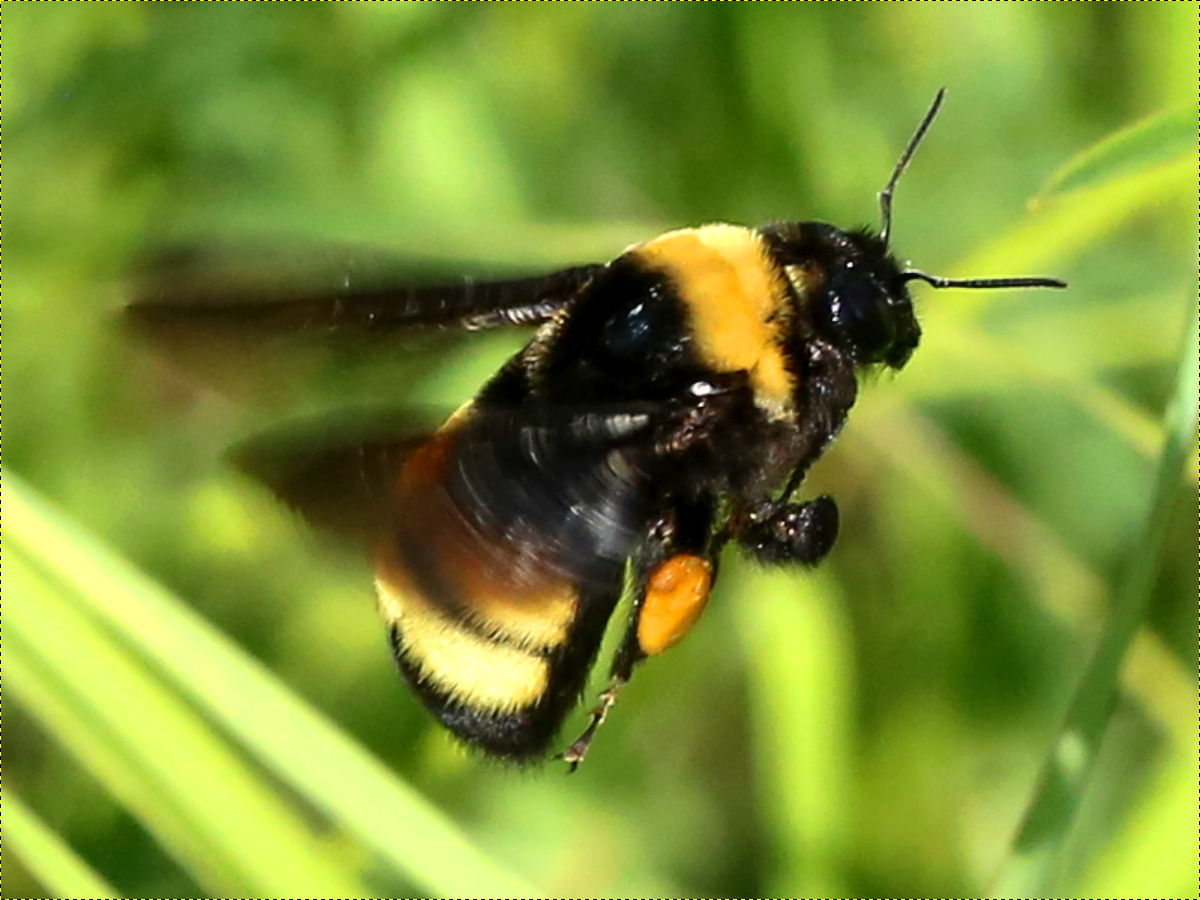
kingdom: Animalia
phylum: Arthropoda
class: Insecta
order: Hymenoptera
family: Apidae
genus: Bombus
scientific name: Bombus auricomus
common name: Black and gold bumble bee
